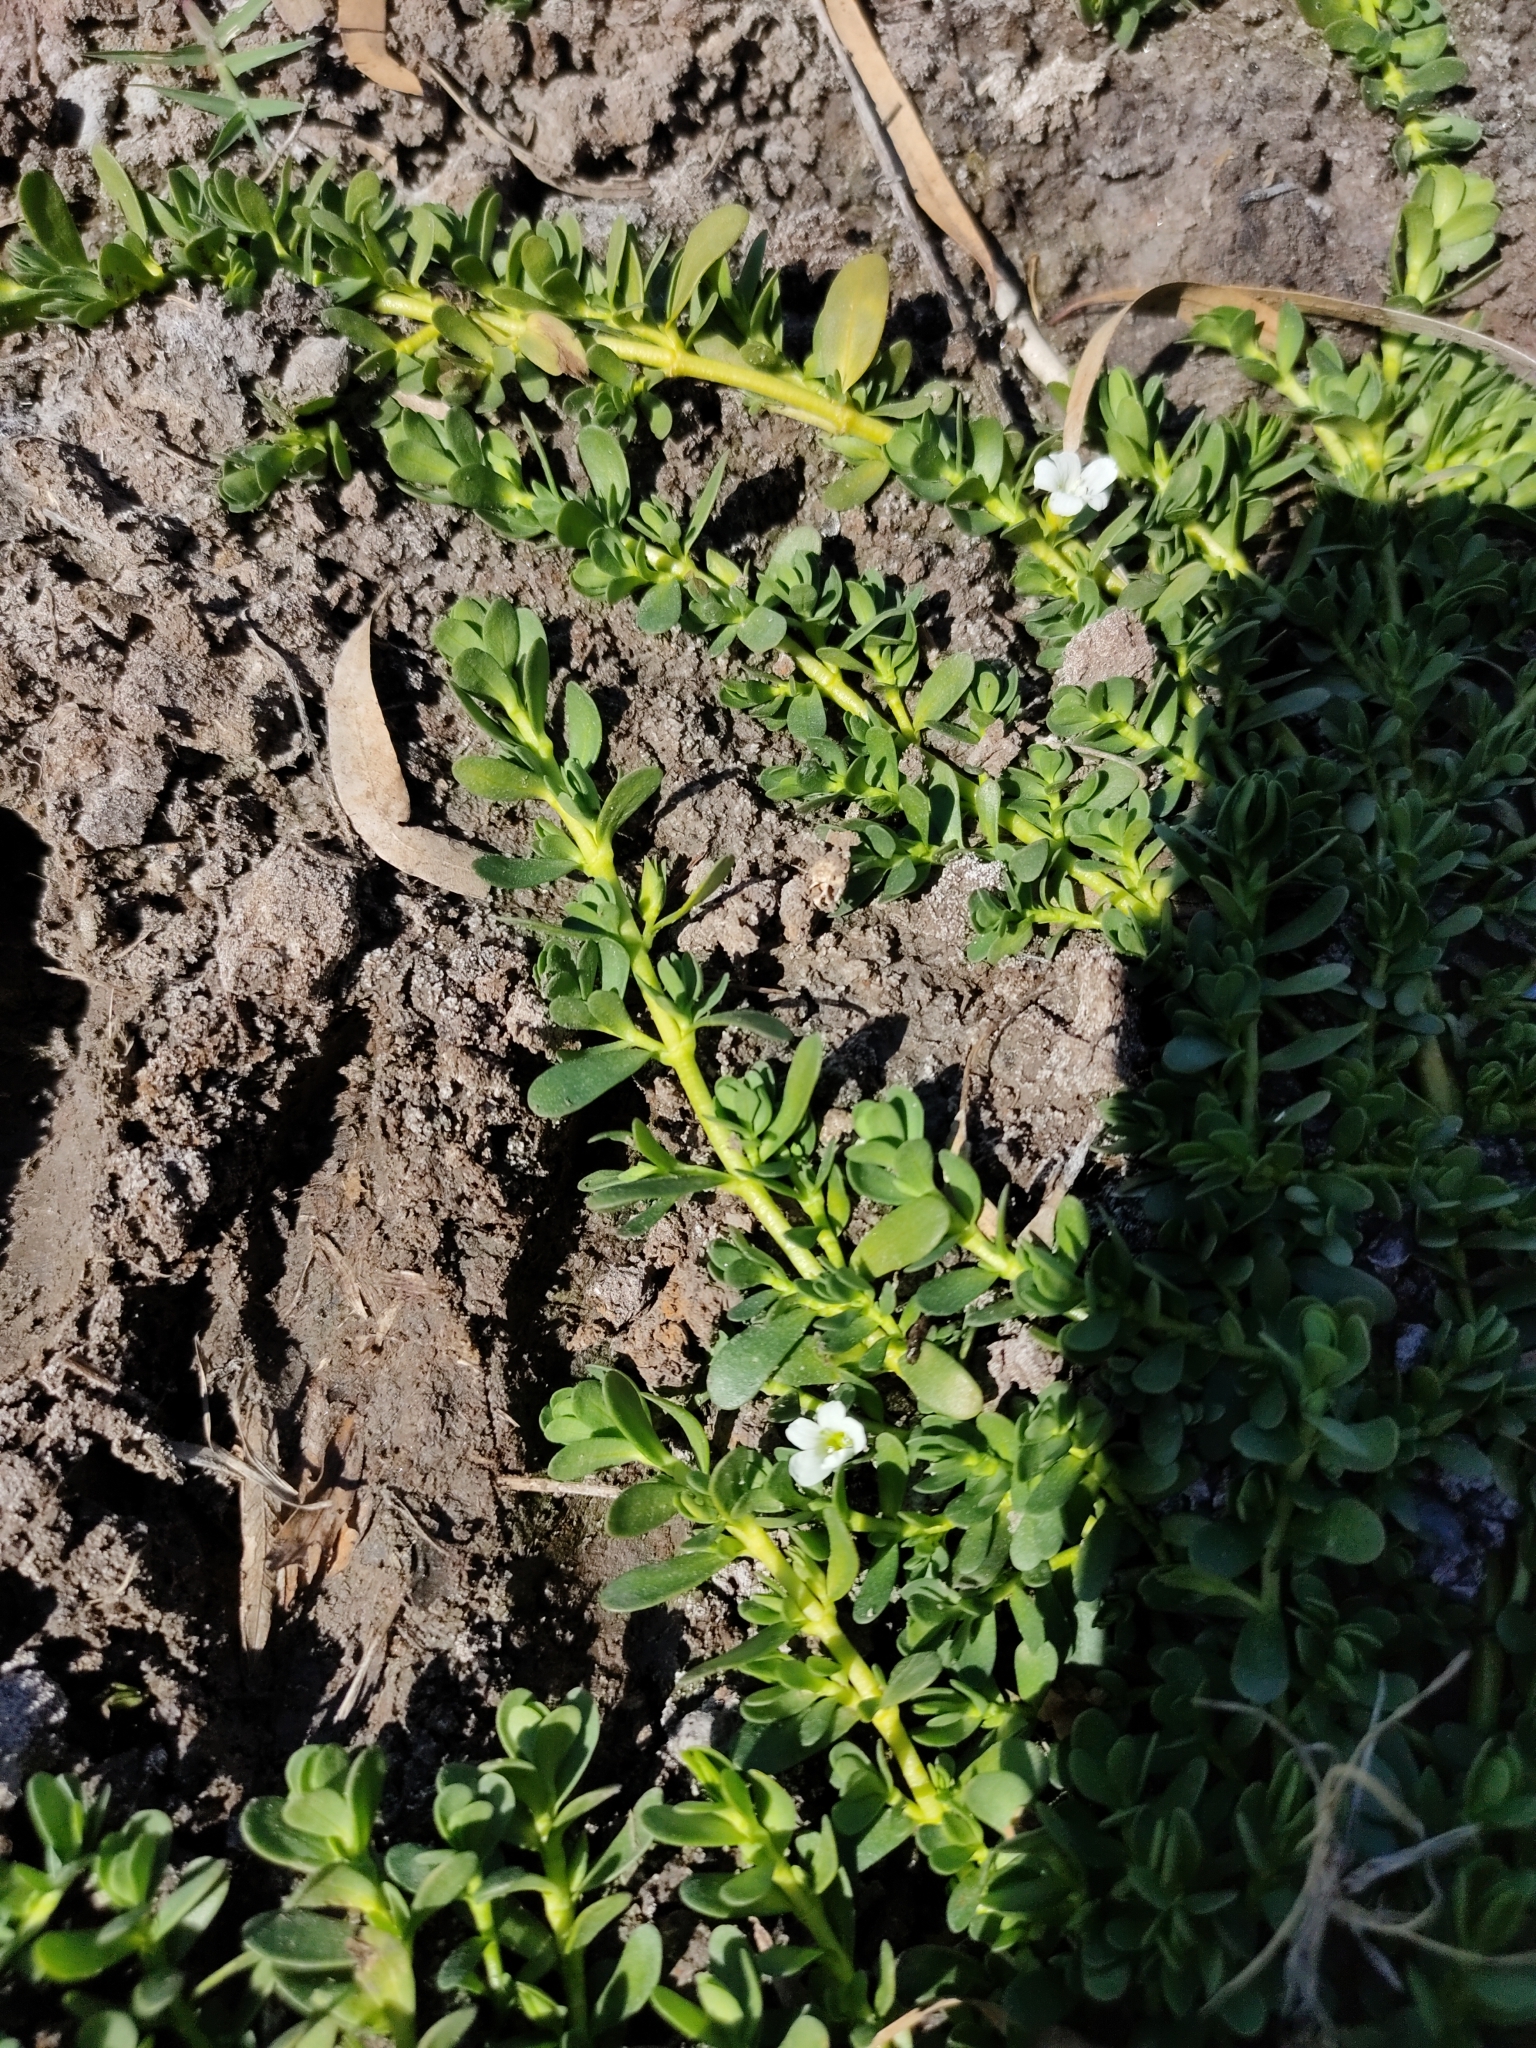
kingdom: Plantae
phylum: Tracheophyta
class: Magnoliopsida
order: Lamiales
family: Plantaginaceae
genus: Bacopa
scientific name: Bacopa monnieri
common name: Indian-pennywort
